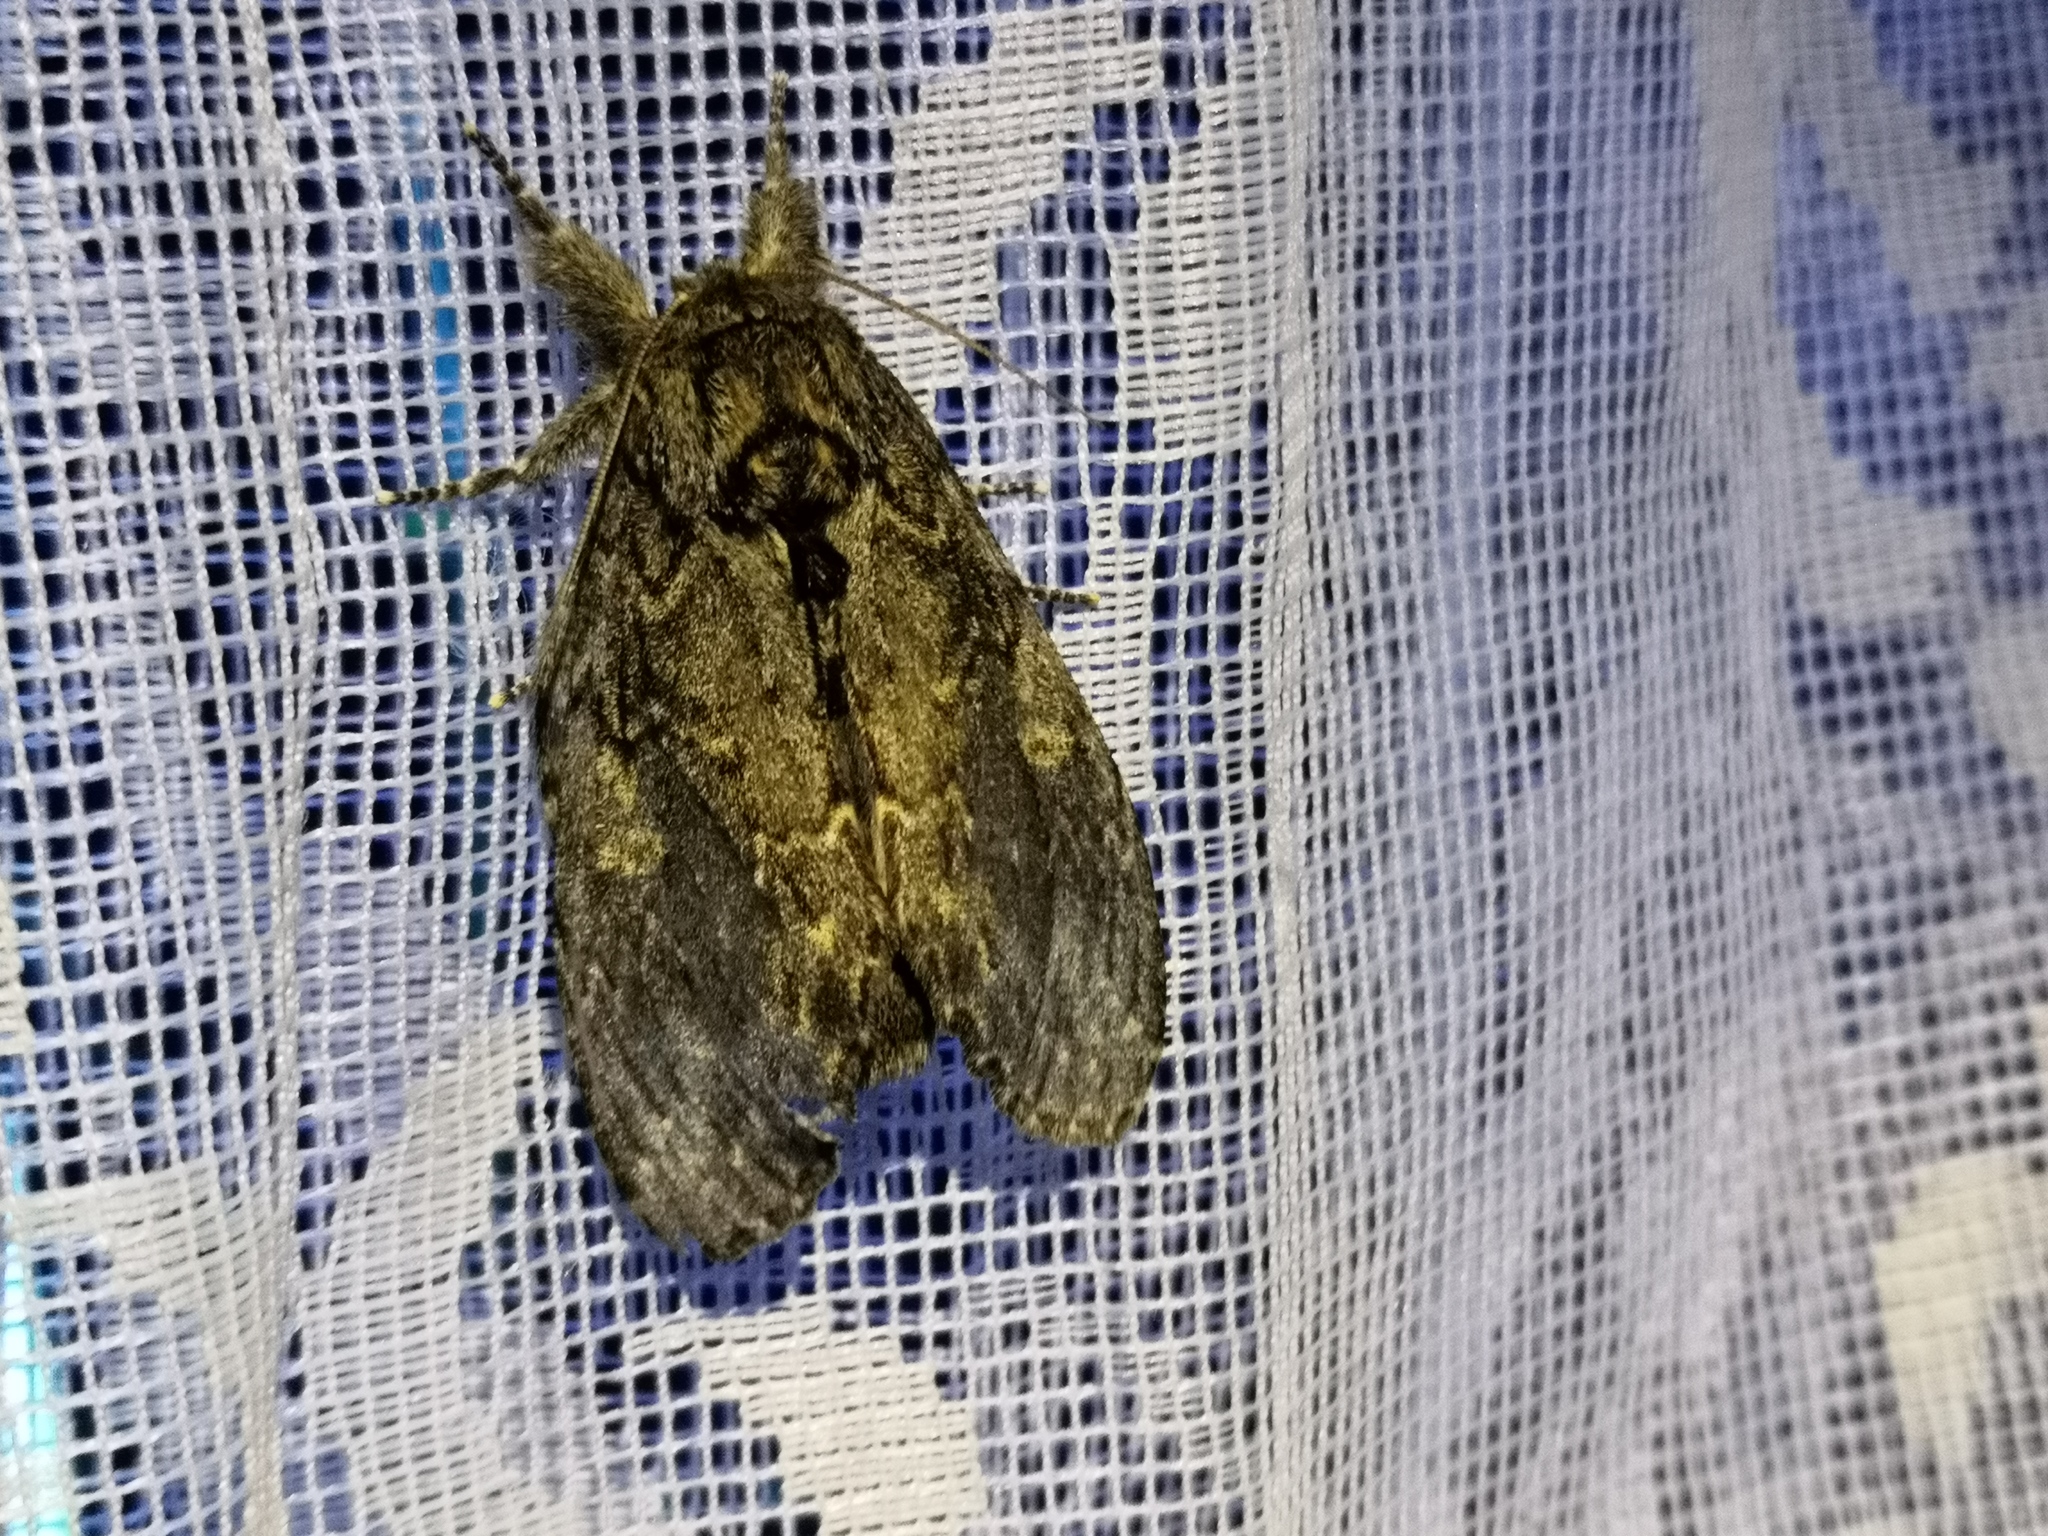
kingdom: Animalia
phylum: Arthropoda
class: Insecta
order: Lepidoptera
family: Notodontidae
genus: Peridea
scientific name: Peridea anceps
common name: Great prominent
